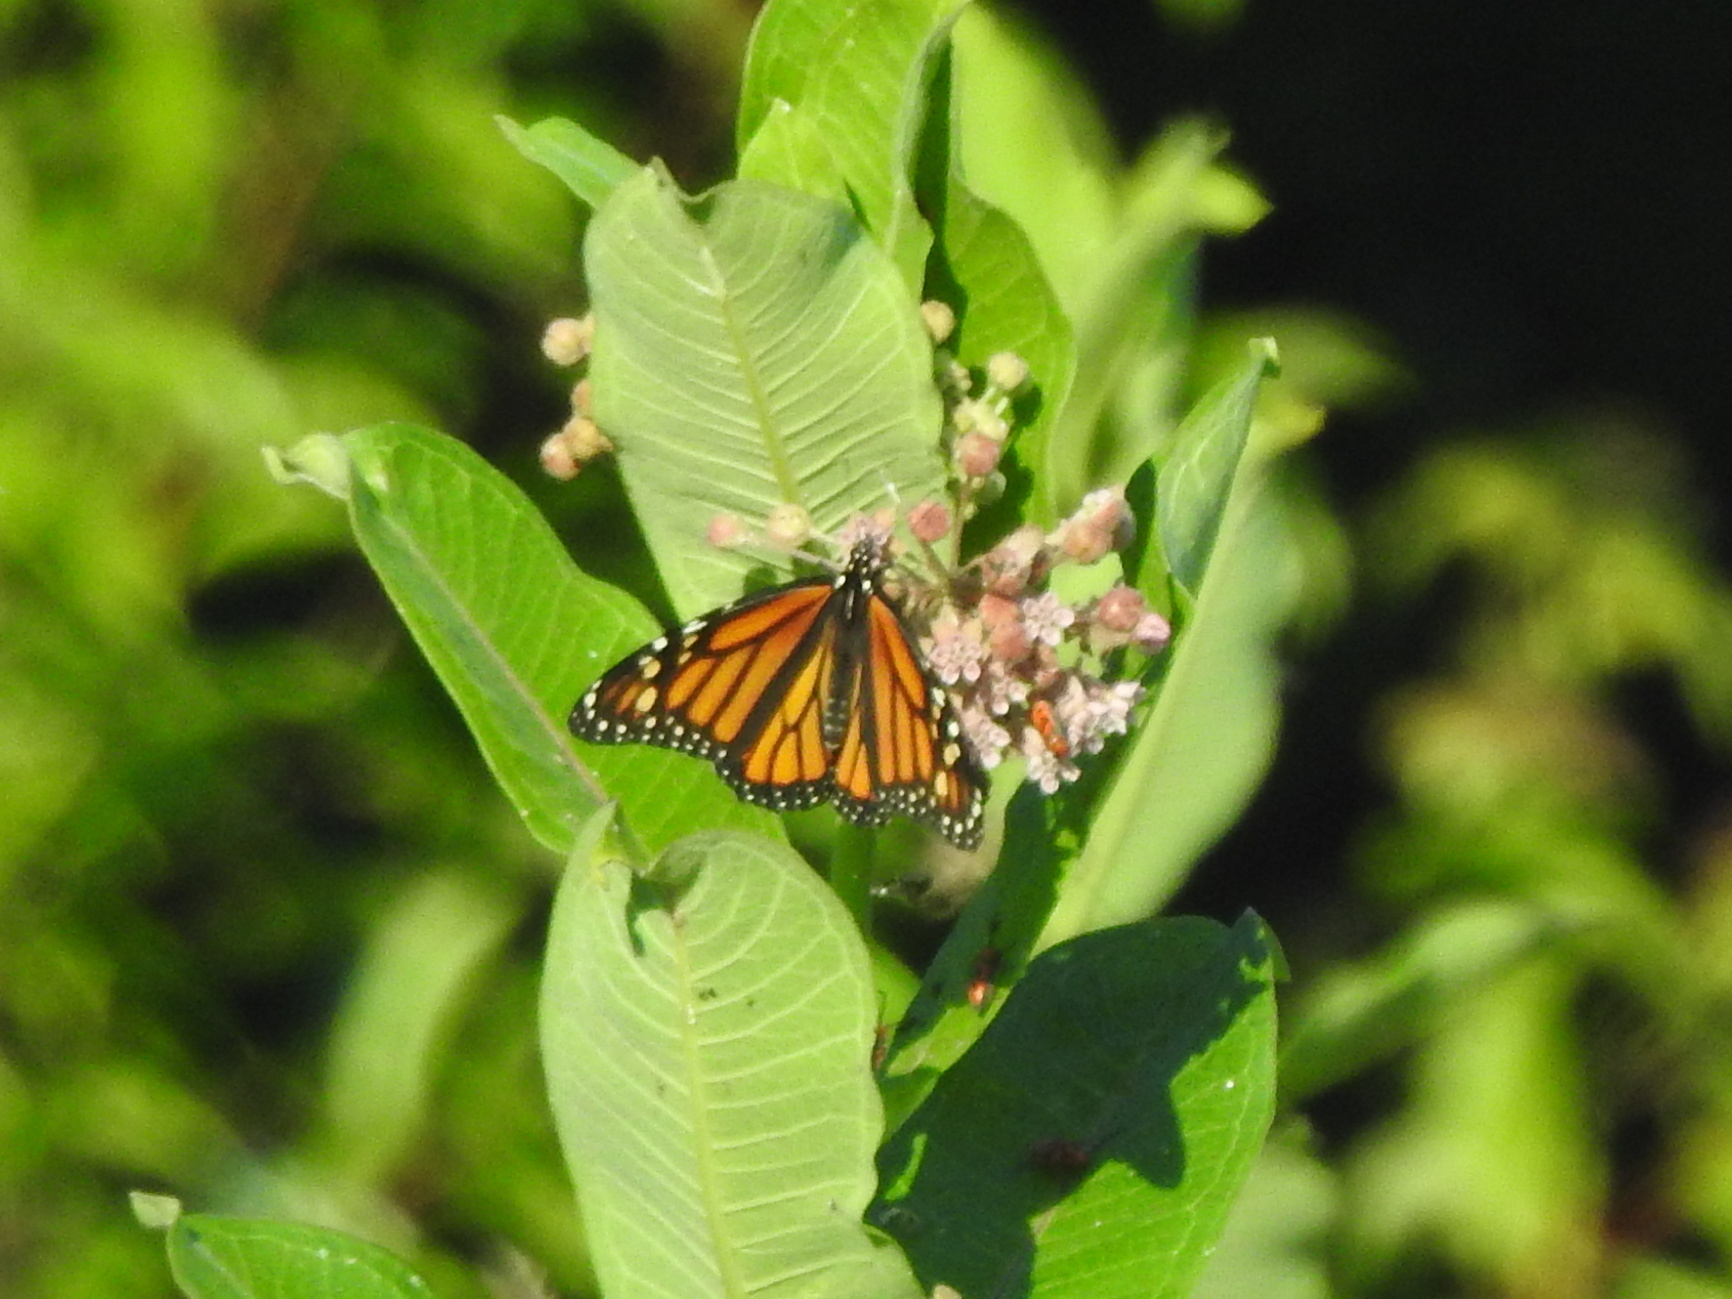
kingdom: Animalia
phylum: Arthropoda
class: Insecta
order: Lepidoptera
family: Nymphalidae
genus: Danaus
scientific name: Danaus plexippus
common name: Monarch
